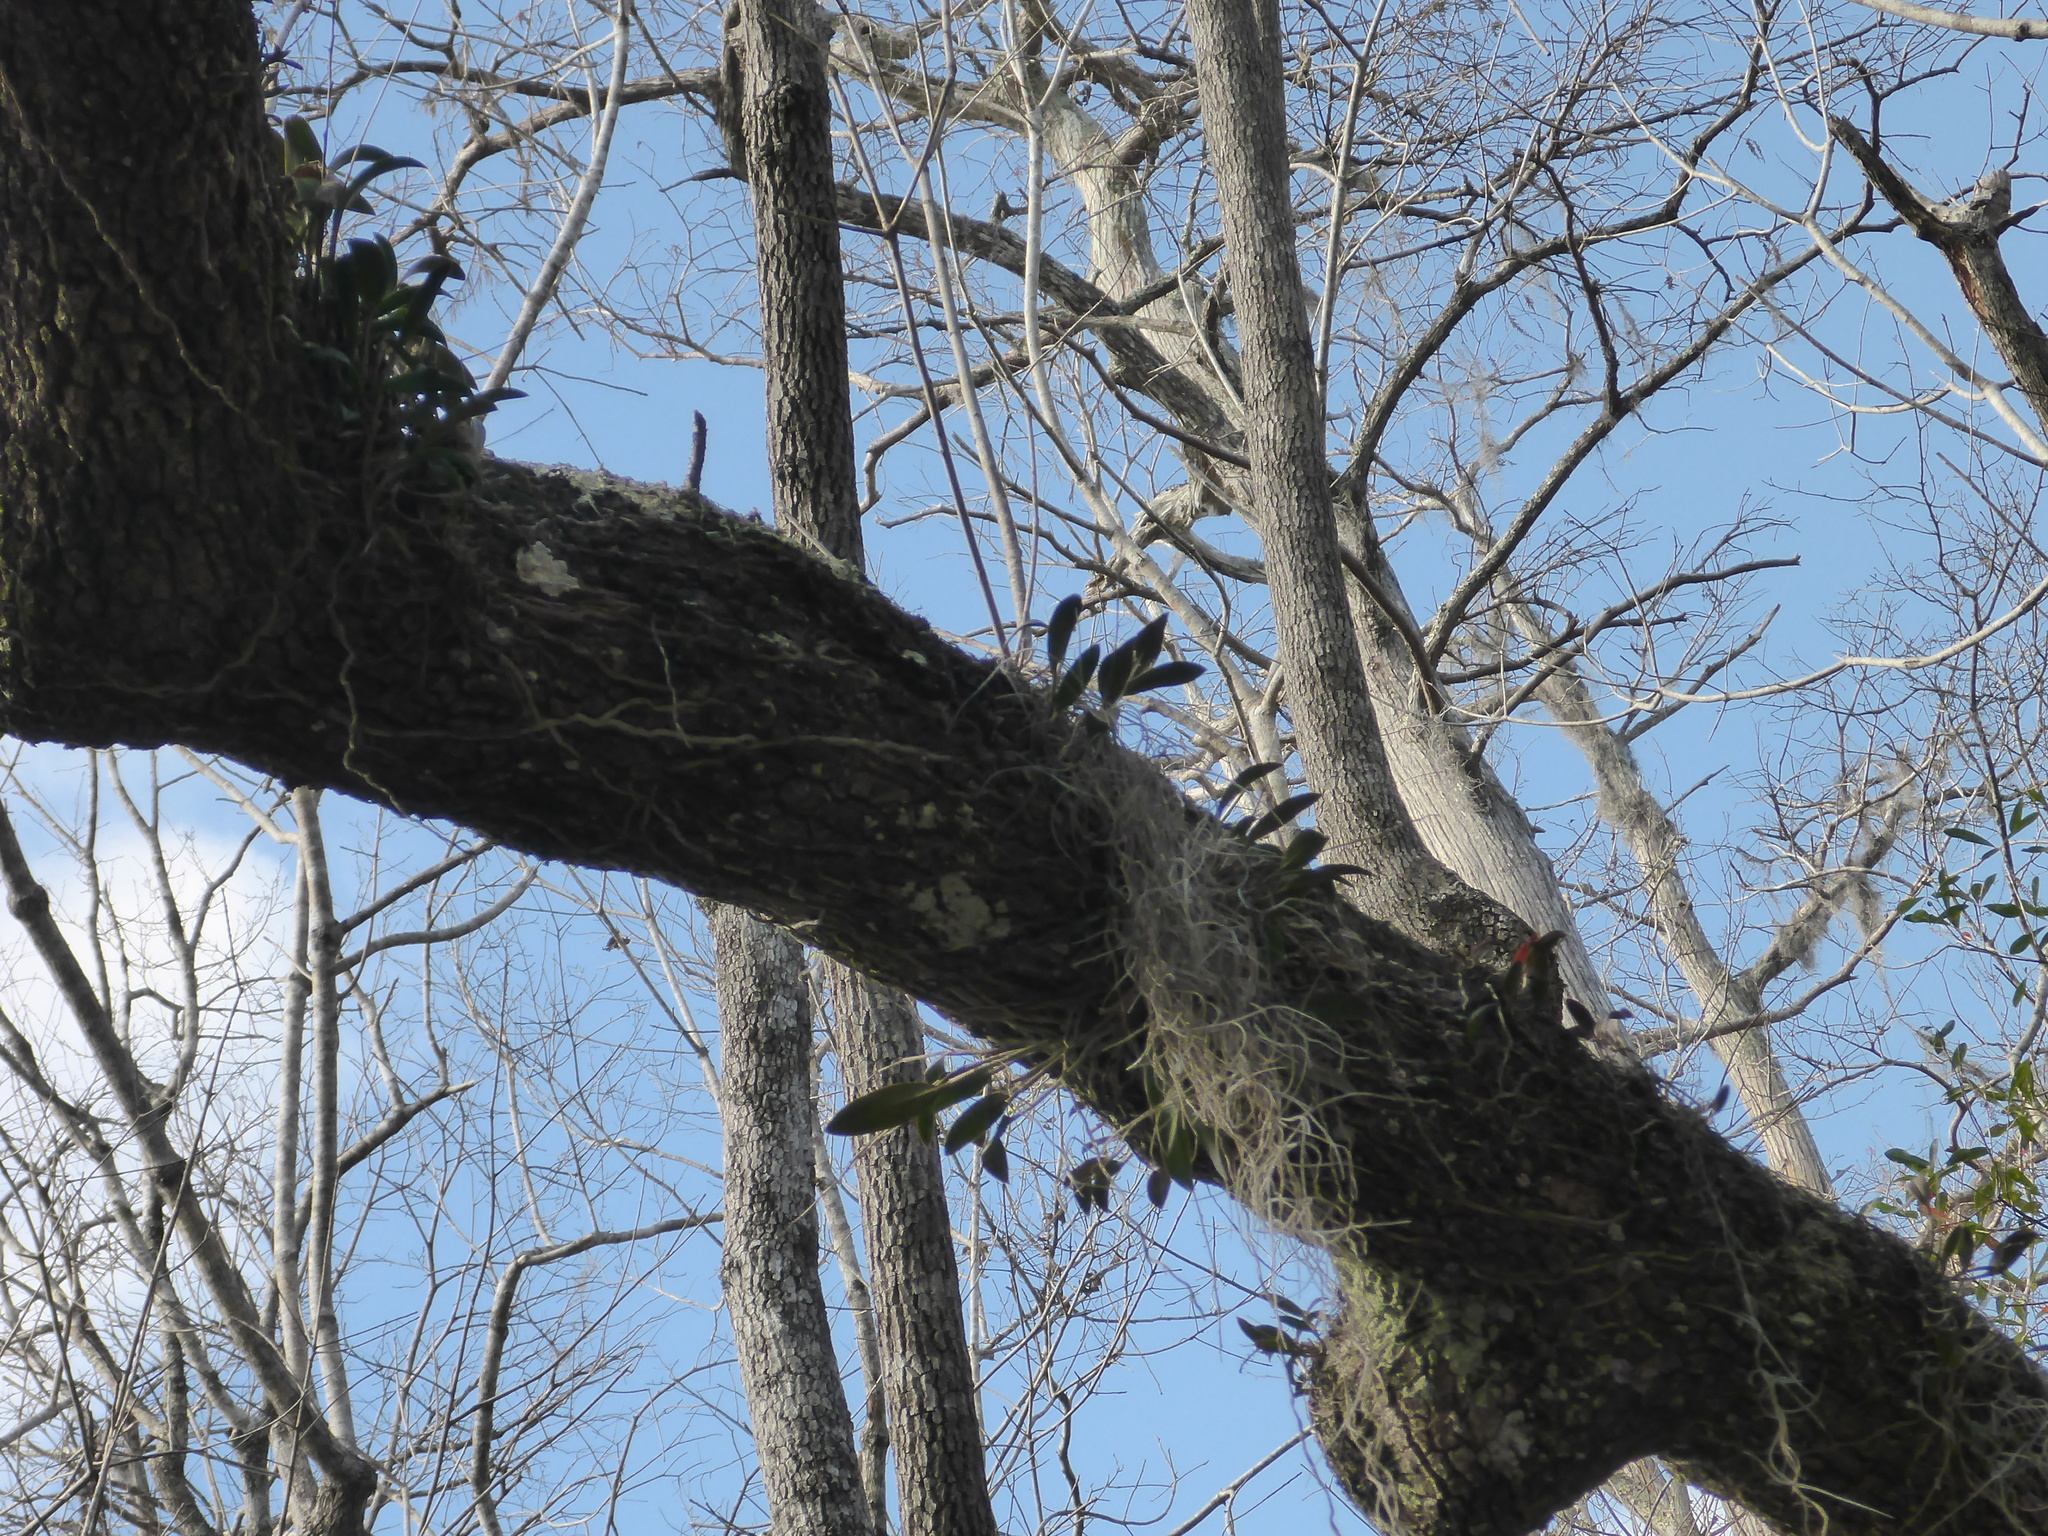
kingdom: Plantae
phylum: Tracheophyta
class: Liliopsida
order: Asparagales
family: Orchidaceae
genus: Epidendrum
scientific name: Epidendrum conopseum
